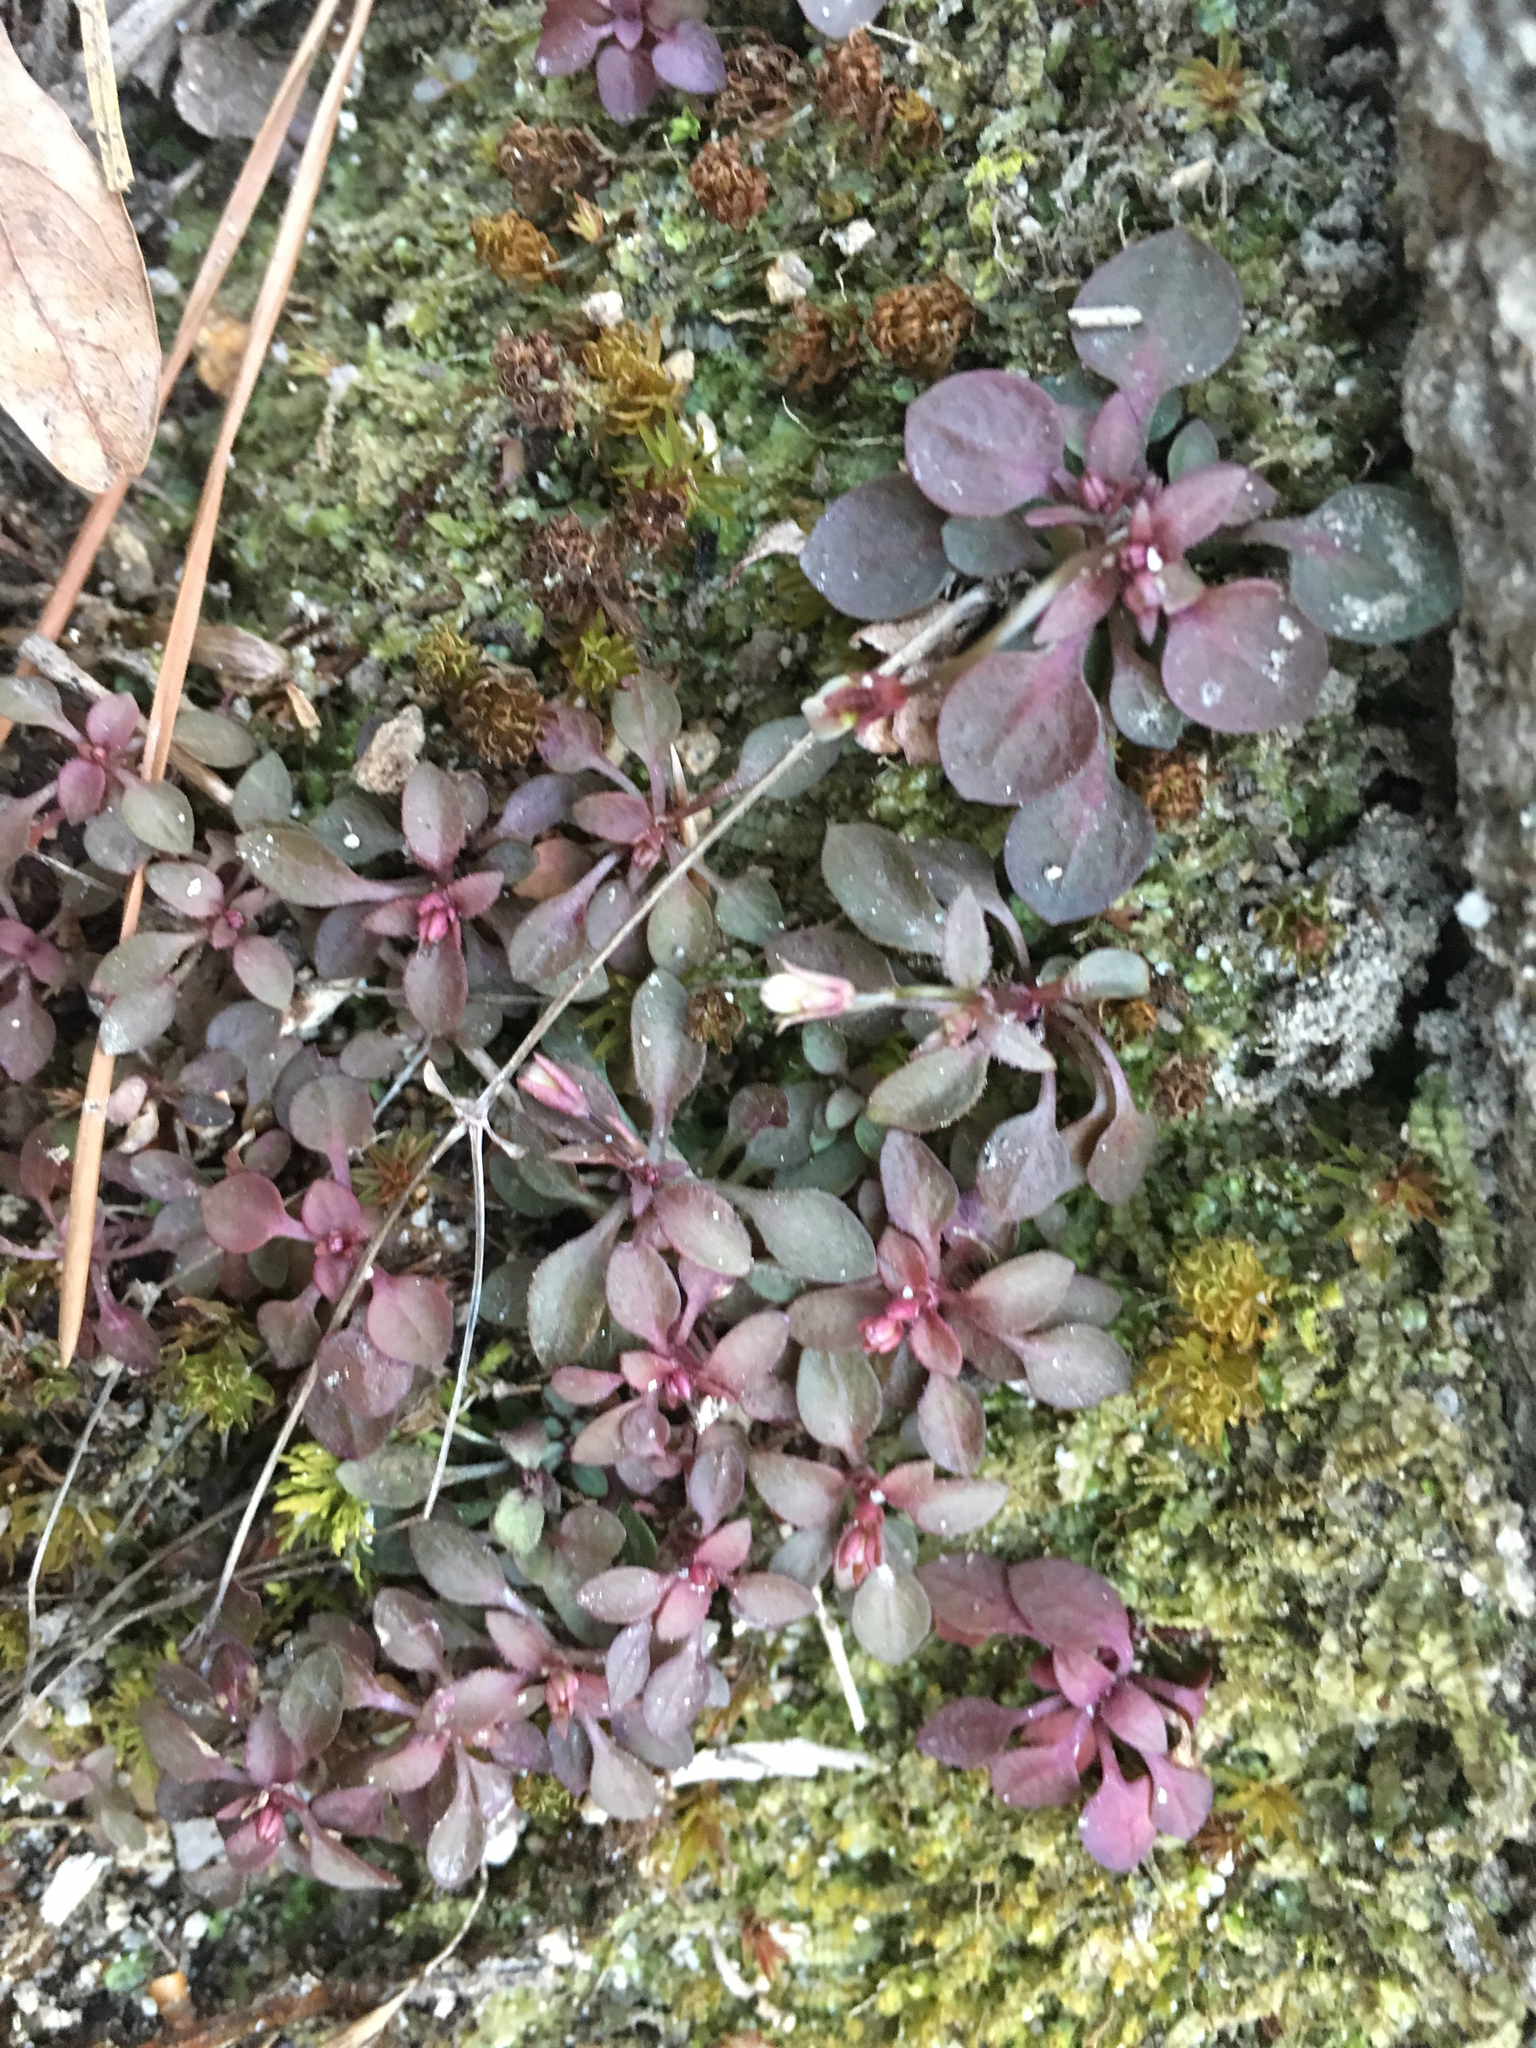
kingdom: Plantae
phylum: Tracheophyta
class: Magnoliopsida
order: Gentianales
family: Rubiaceae
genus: Houstonia
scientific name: Houstonia caerulea
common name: Bluets
